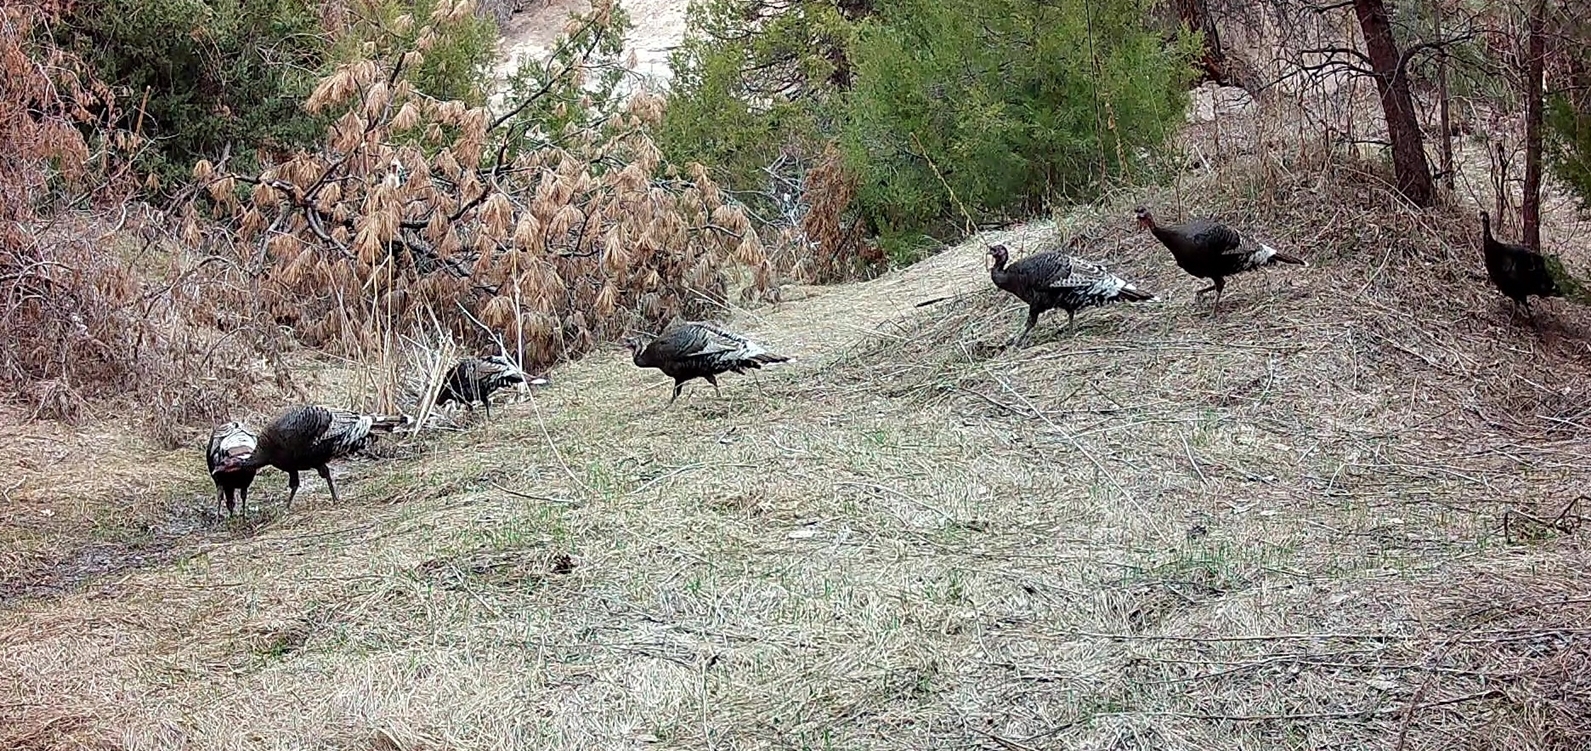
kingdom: Animalia
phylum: Chordata
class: Aves
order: Galliformes
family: Phasianidae
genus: Meleagris
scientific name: Meleagris gallopavo
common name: Wild turkey
